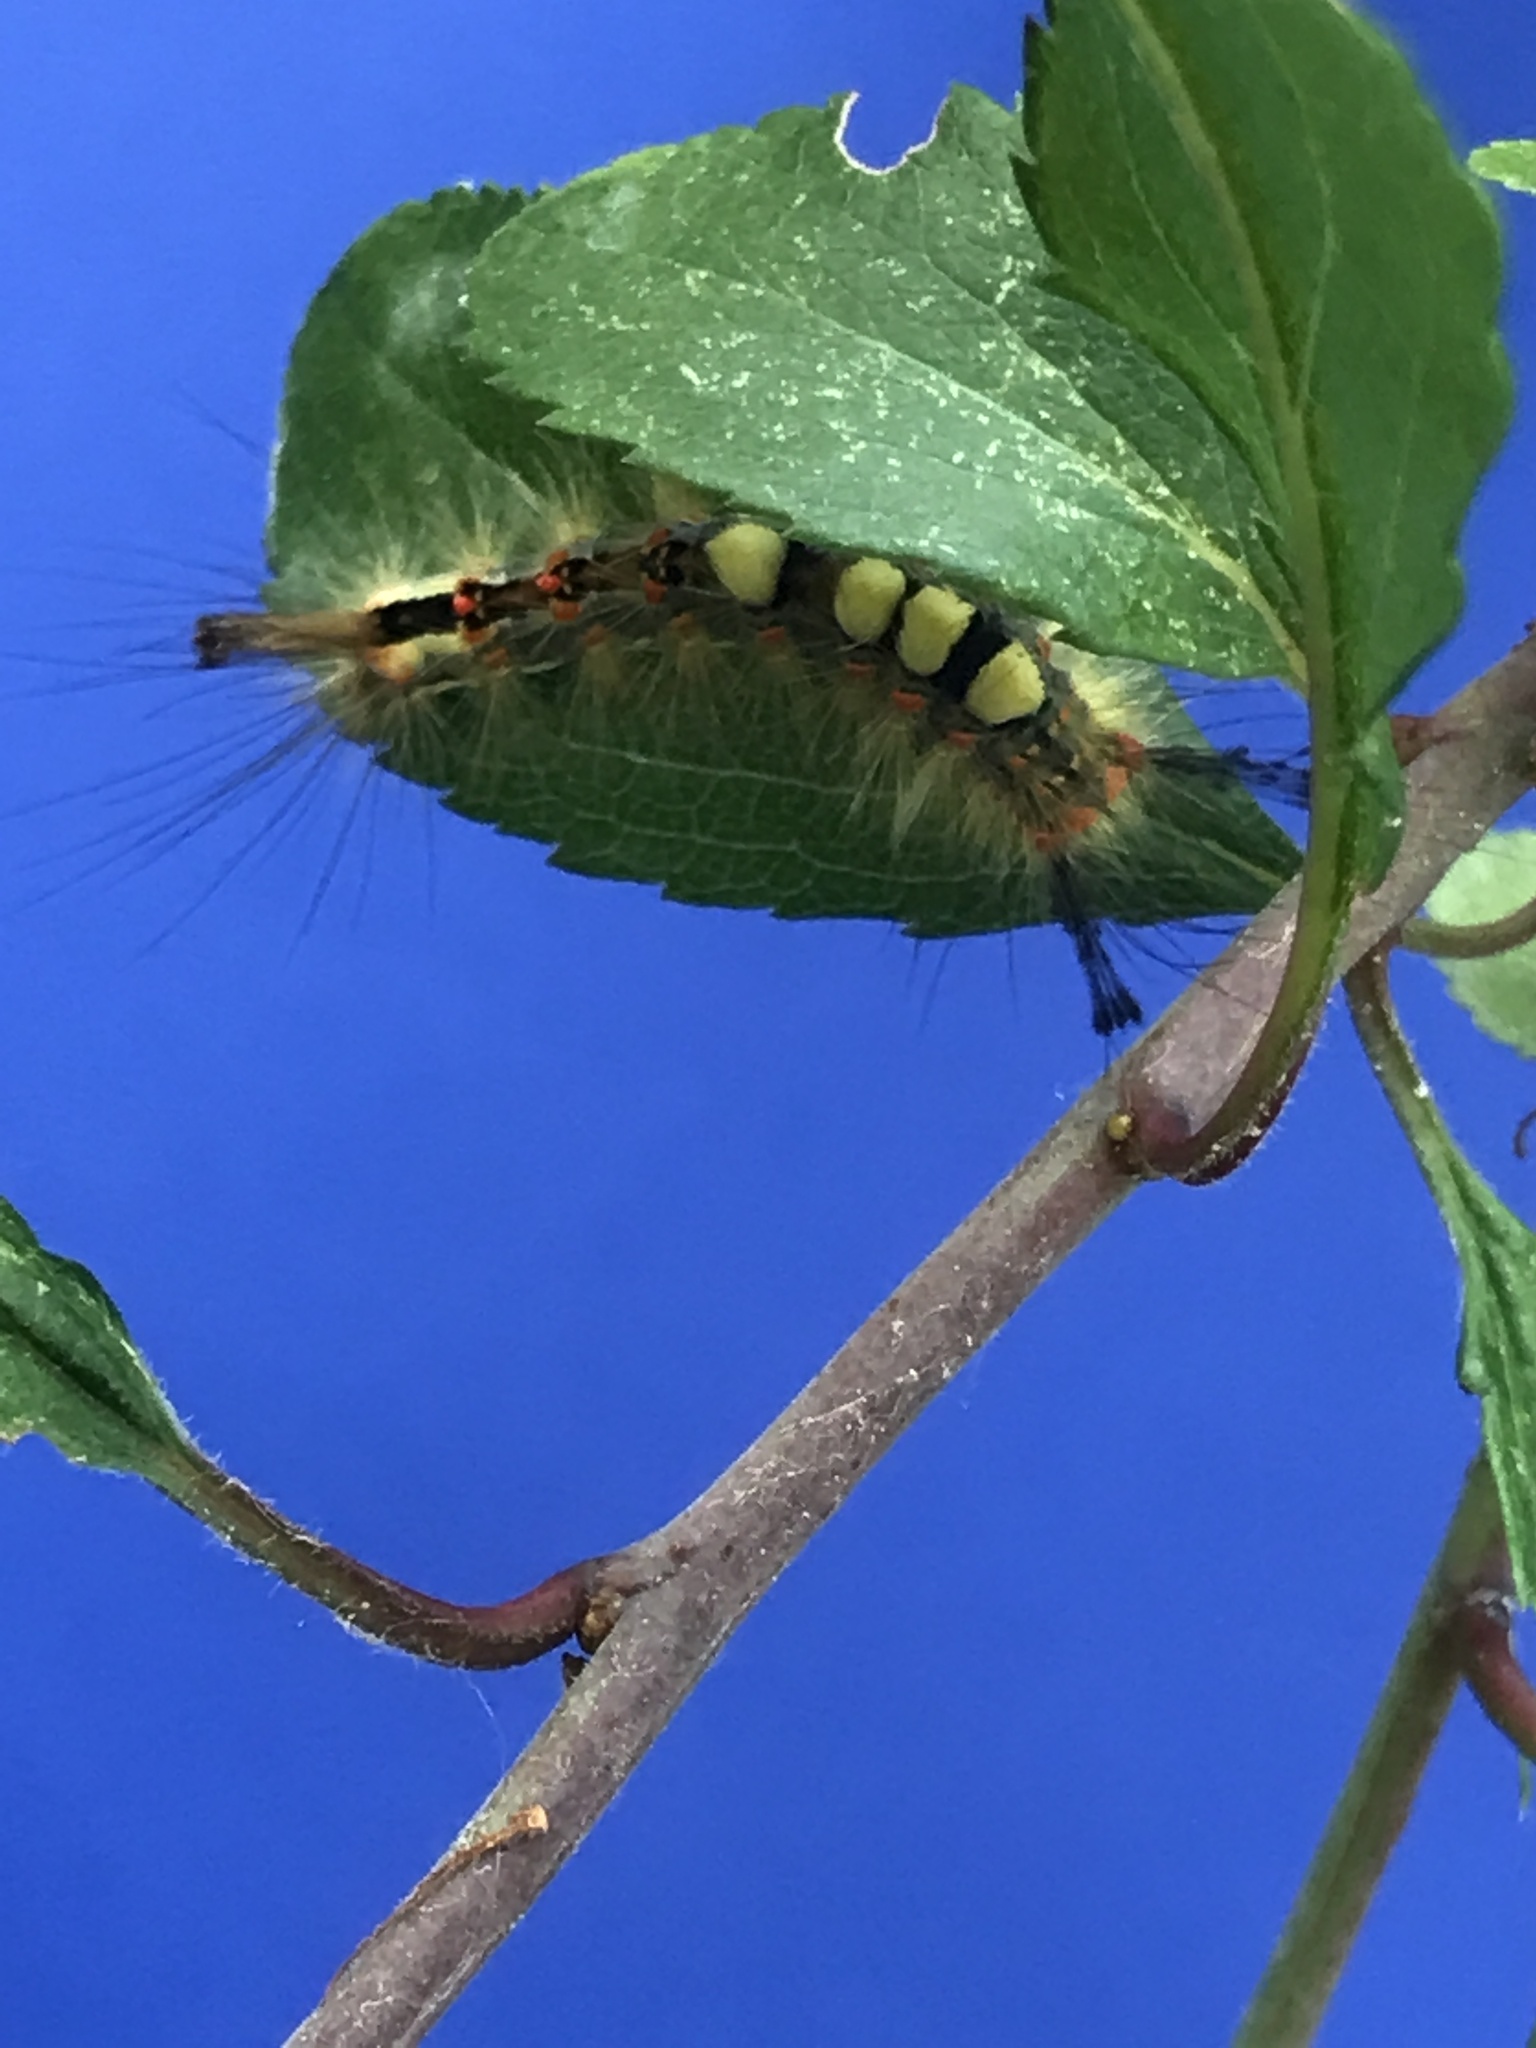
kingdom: Animalia
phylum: Arthropoda
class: Insecta
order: Lepidoptera
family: Erebidae
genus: Orgyia
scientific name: Orgyia antiqua
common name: Vapourer
